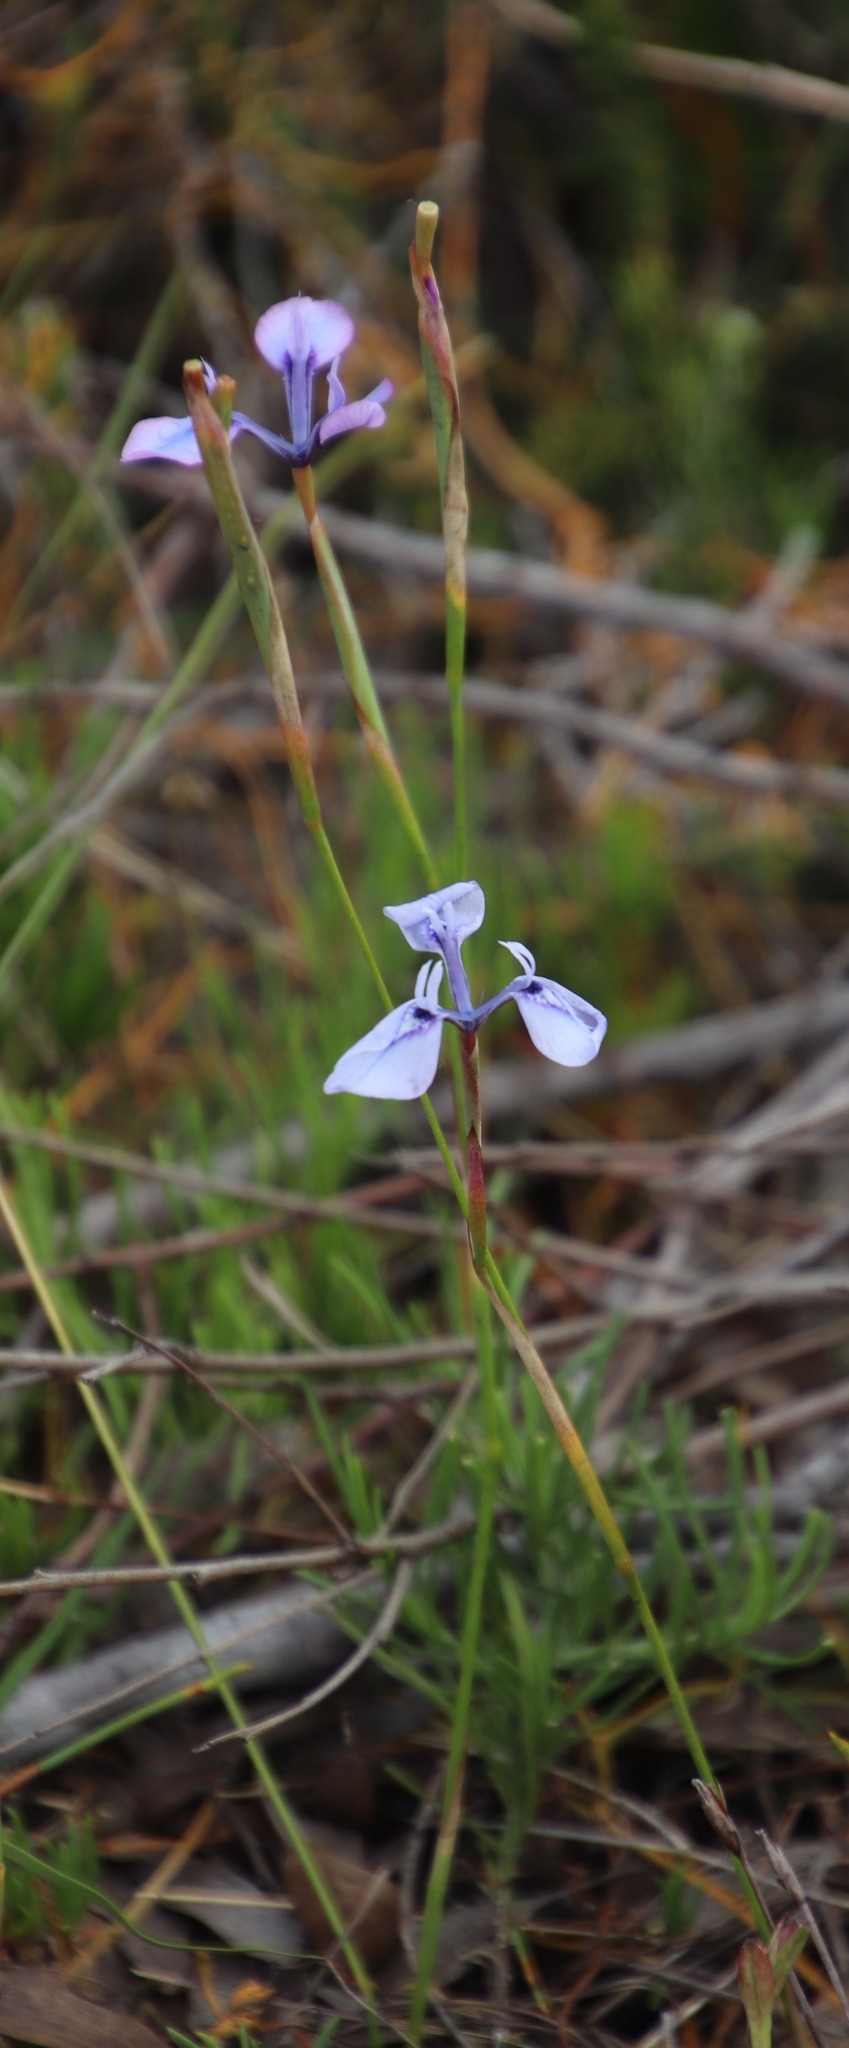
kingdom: Plantae
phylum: Tracheophyta
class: Liliopsida
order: Asparagales
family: Iridaceae
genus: Moraea
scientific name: Moraea tripetala
